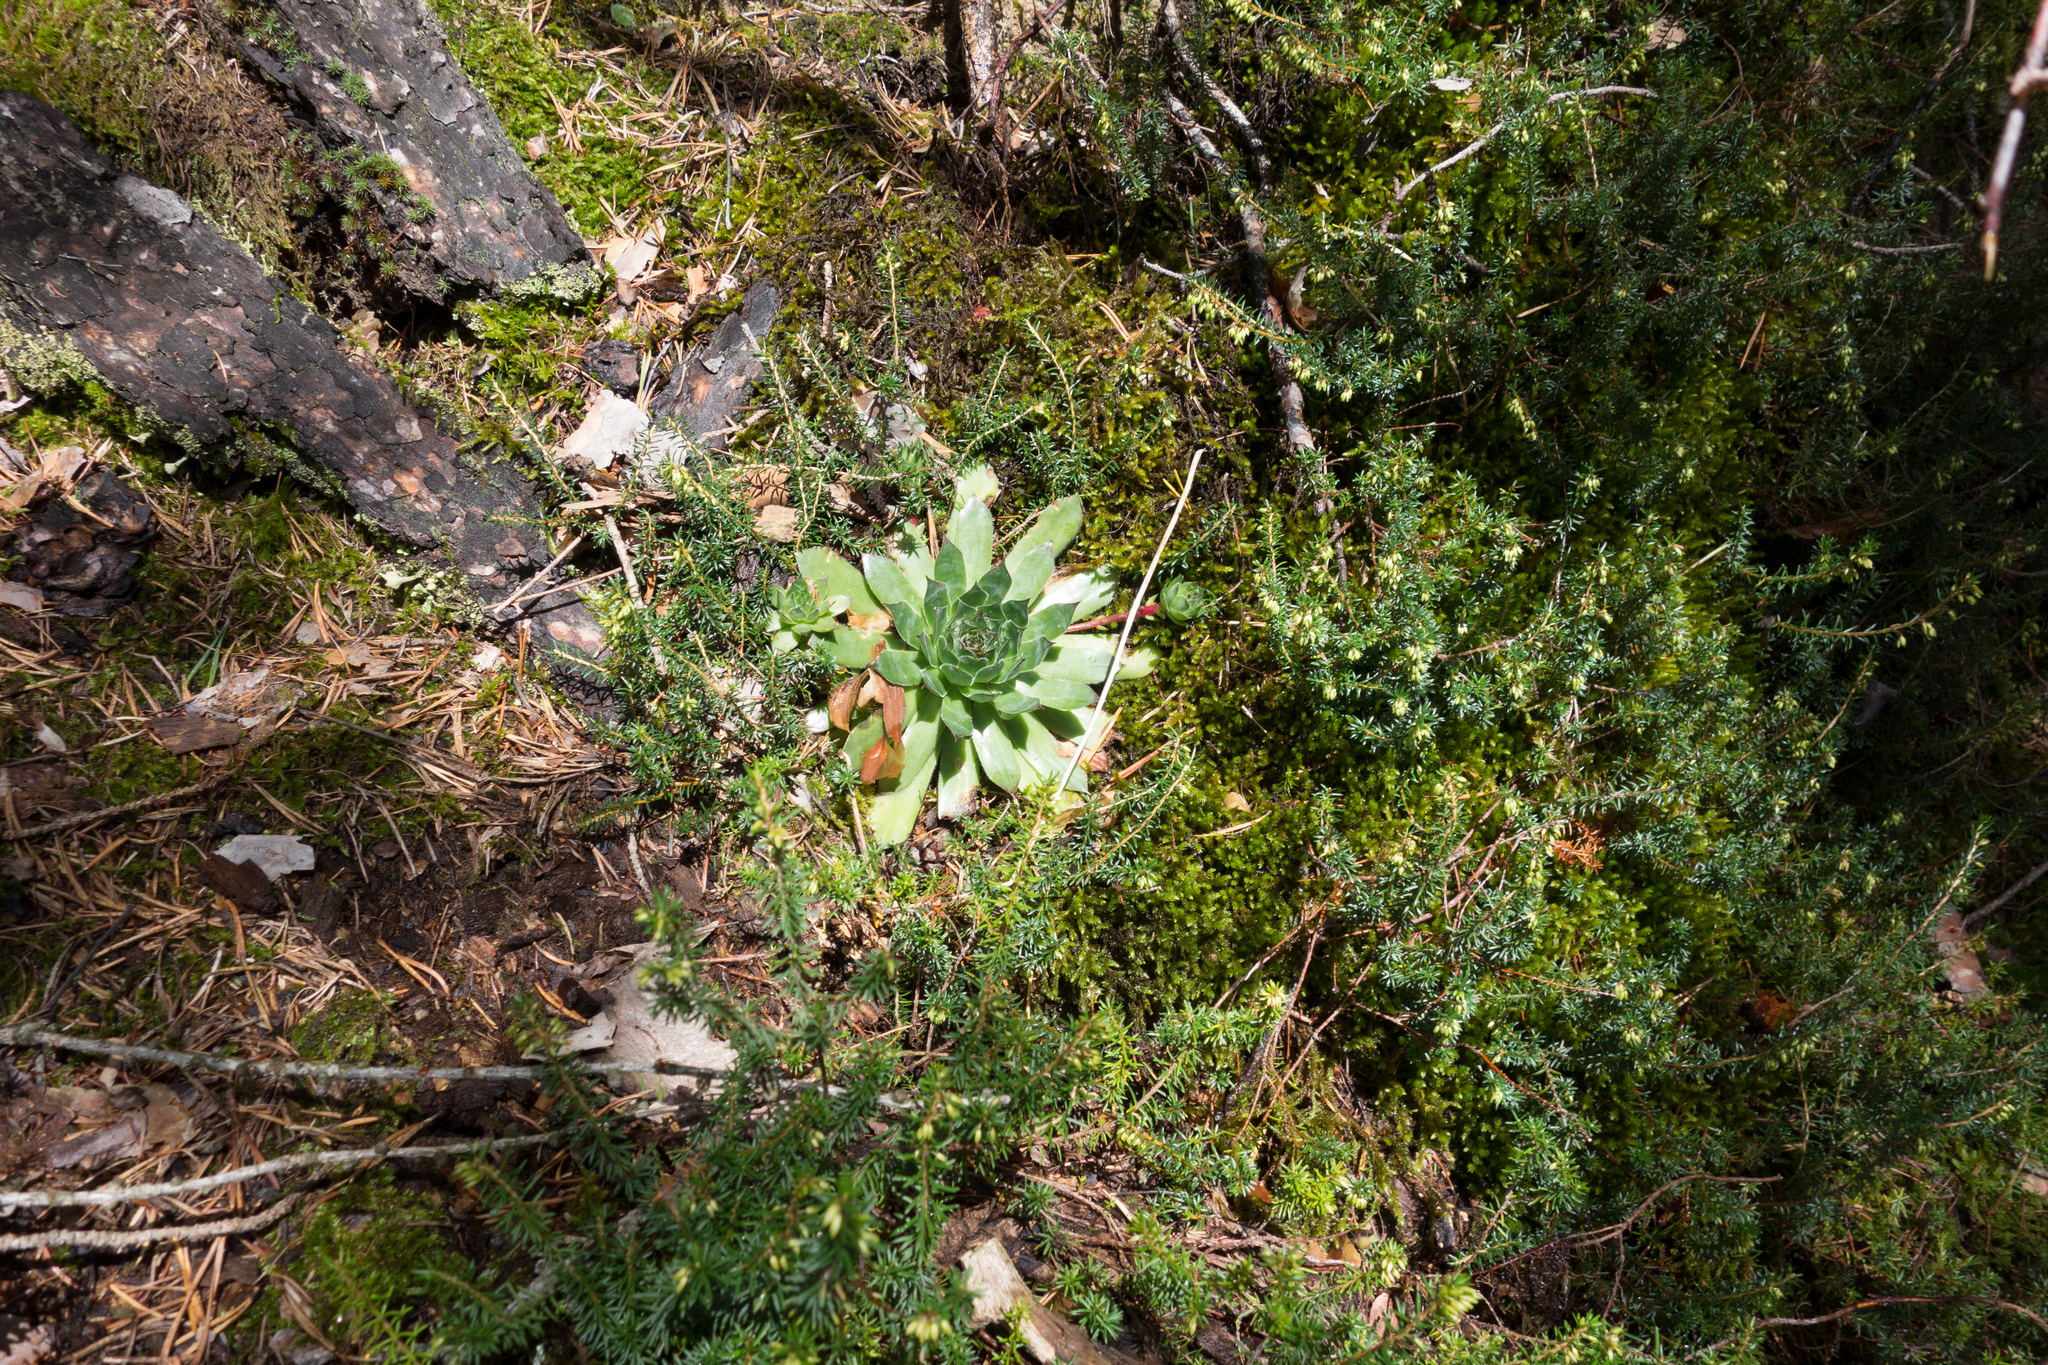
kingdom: Plantae
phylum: Tracheophyta
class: Magnoliopsida
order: Saxifragales
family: Crassulaceae
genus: Sempervivum
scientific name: Sempervivum tectorum
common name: House-leek
